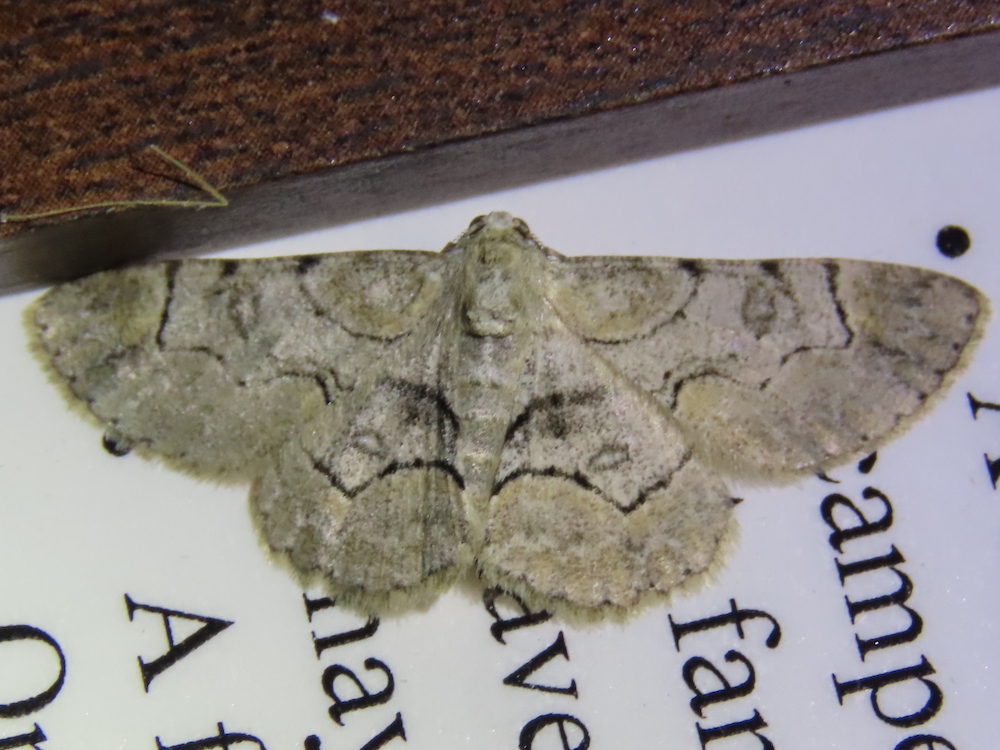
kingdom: Animalia
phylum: Arthropoda
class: Insecta
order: Lepidoptera
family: Geometridae
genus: Iridopsis
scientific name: Iridopsis larvaria
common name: Bent-line gray
